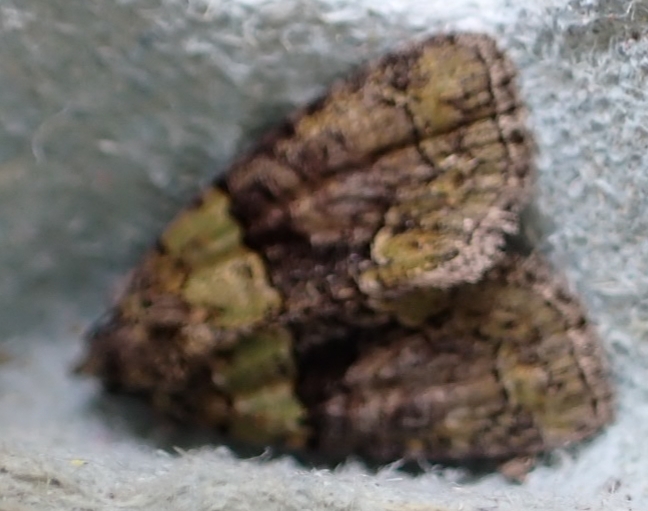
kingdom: Animalia
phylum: Arthropoda
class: Insecta
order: Lepidoptera
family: Noctuidae
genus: Cryphia
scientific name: Cryphia algae
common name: Tree-lichen beauty
